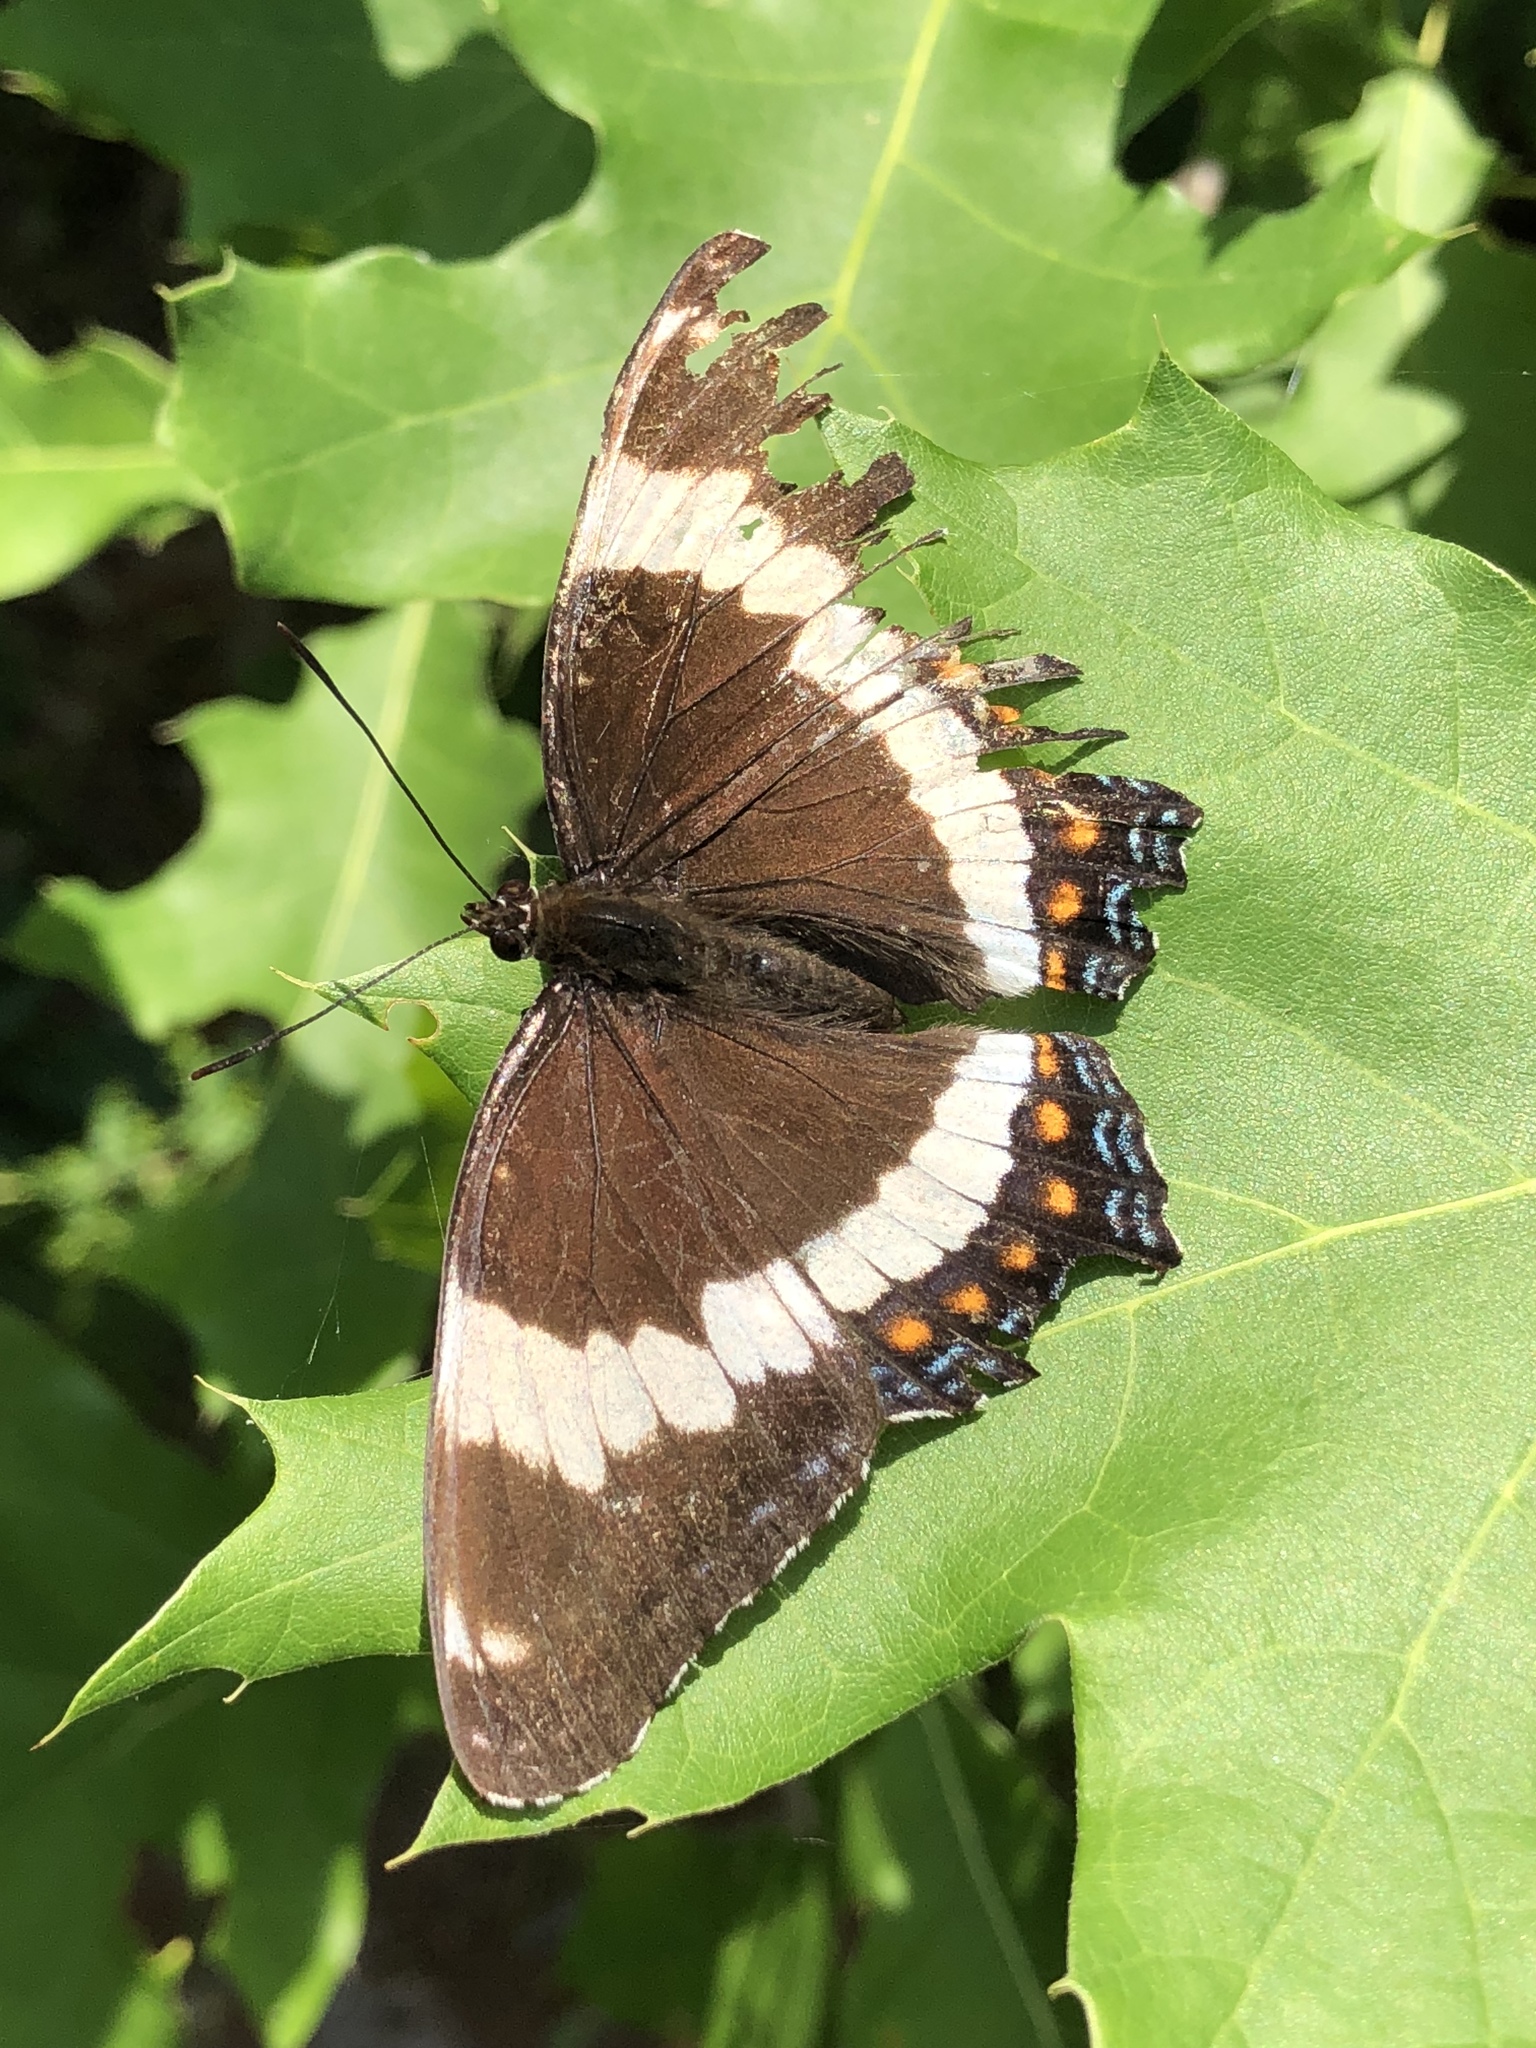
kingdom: Animalia
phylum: Arthropoda
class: Insecta
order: Lepidoptera
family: Nymphalidae
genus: Limenitis
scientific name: Limenitis arthemis
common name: Red-spotted admiral
